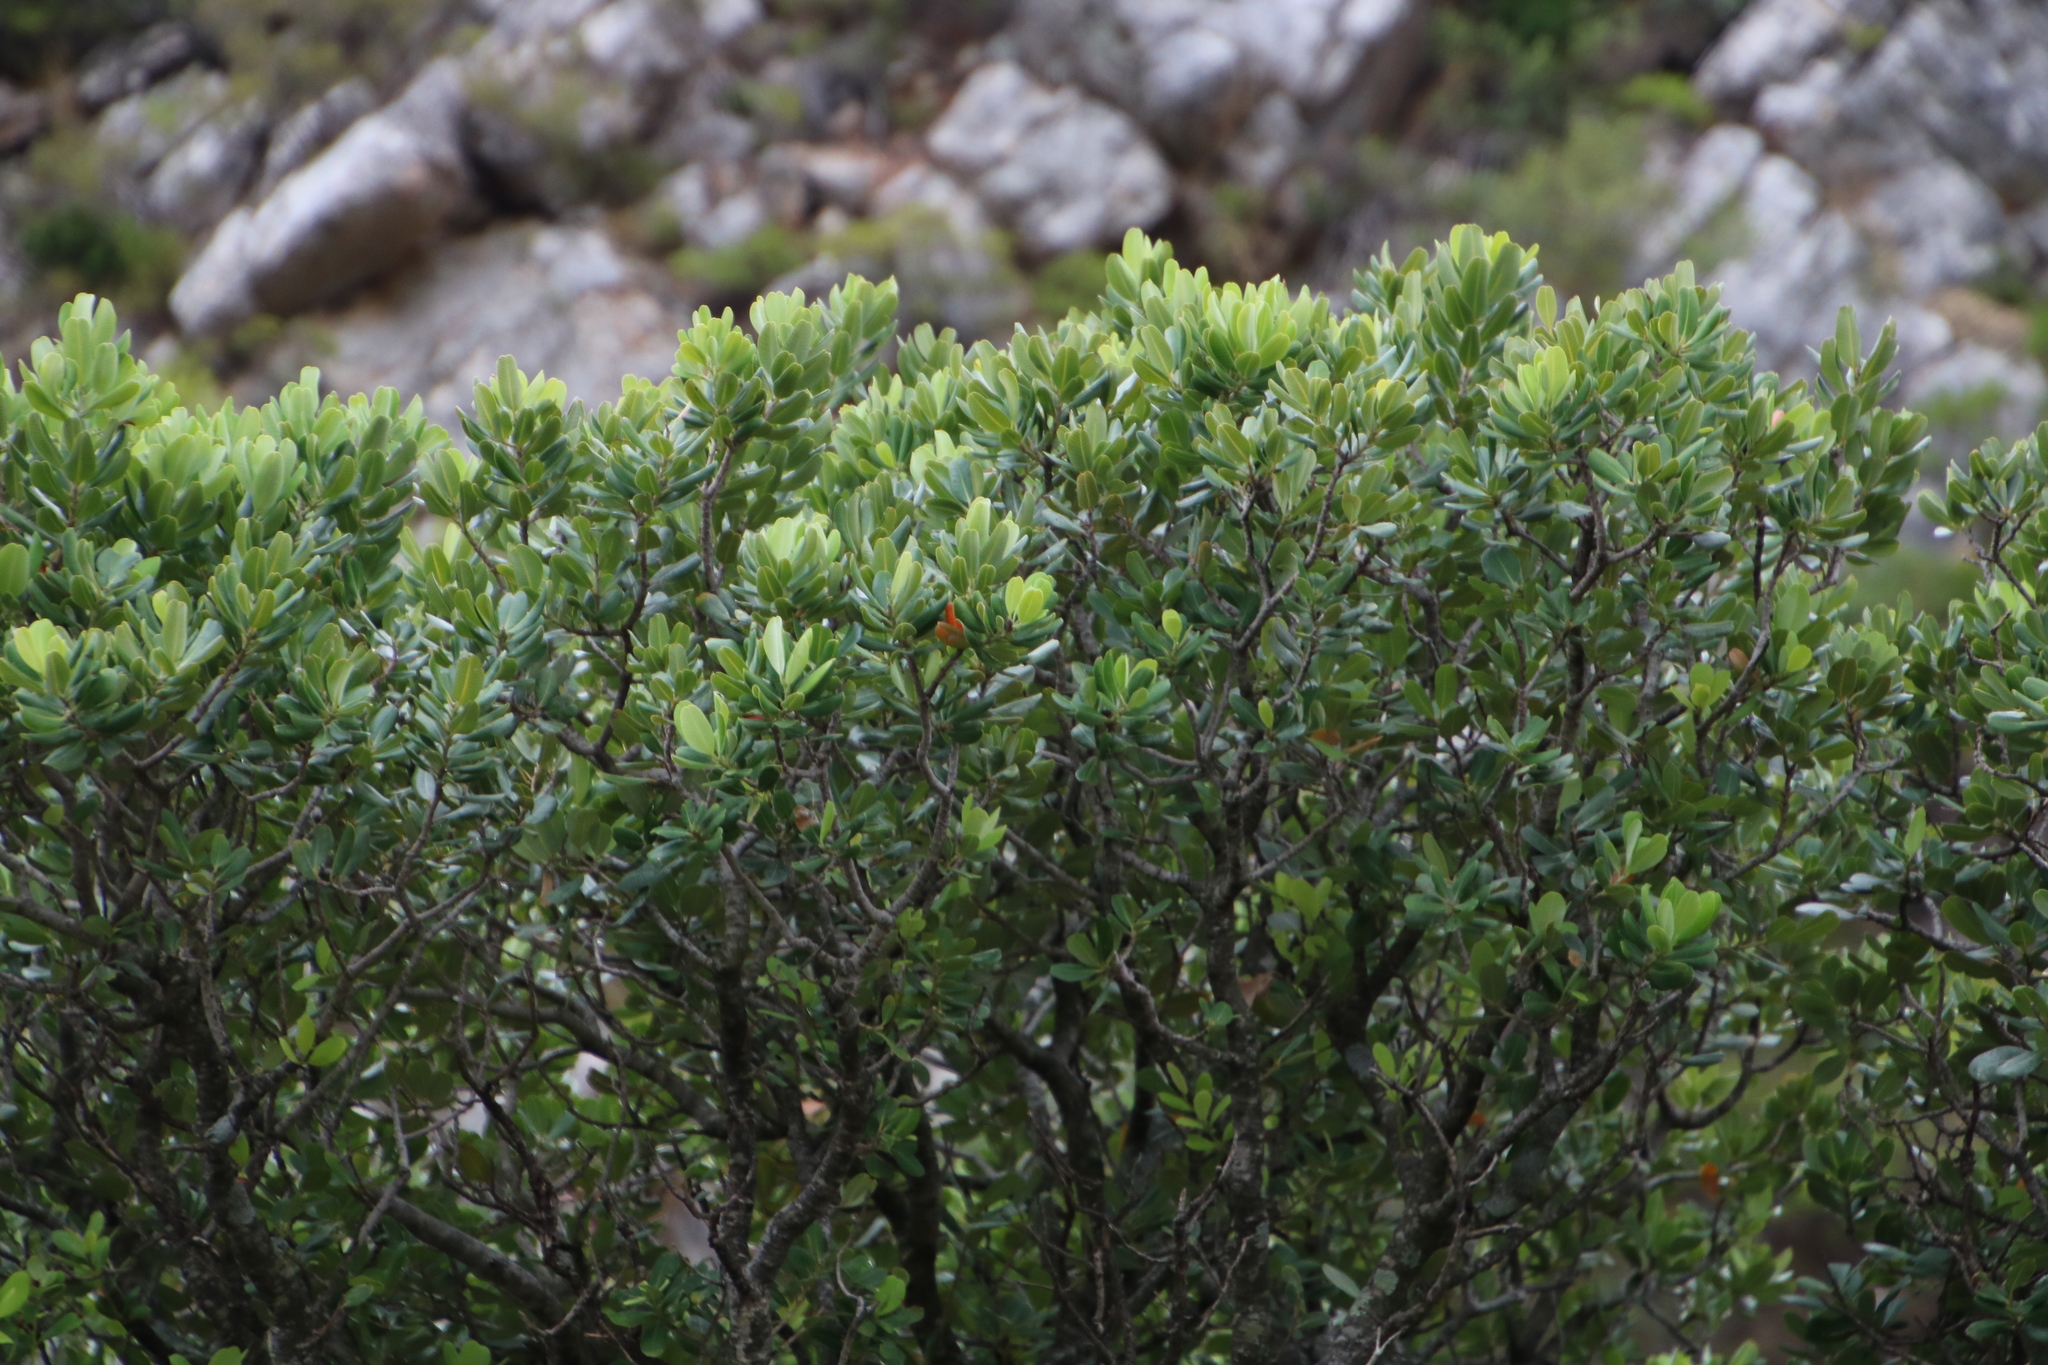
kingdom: Plantae
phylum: Tracheophyta
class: Magnoliopsida
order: Sapindales
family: Anacardiaceae
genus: Heeria
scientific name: Heeria argentea
